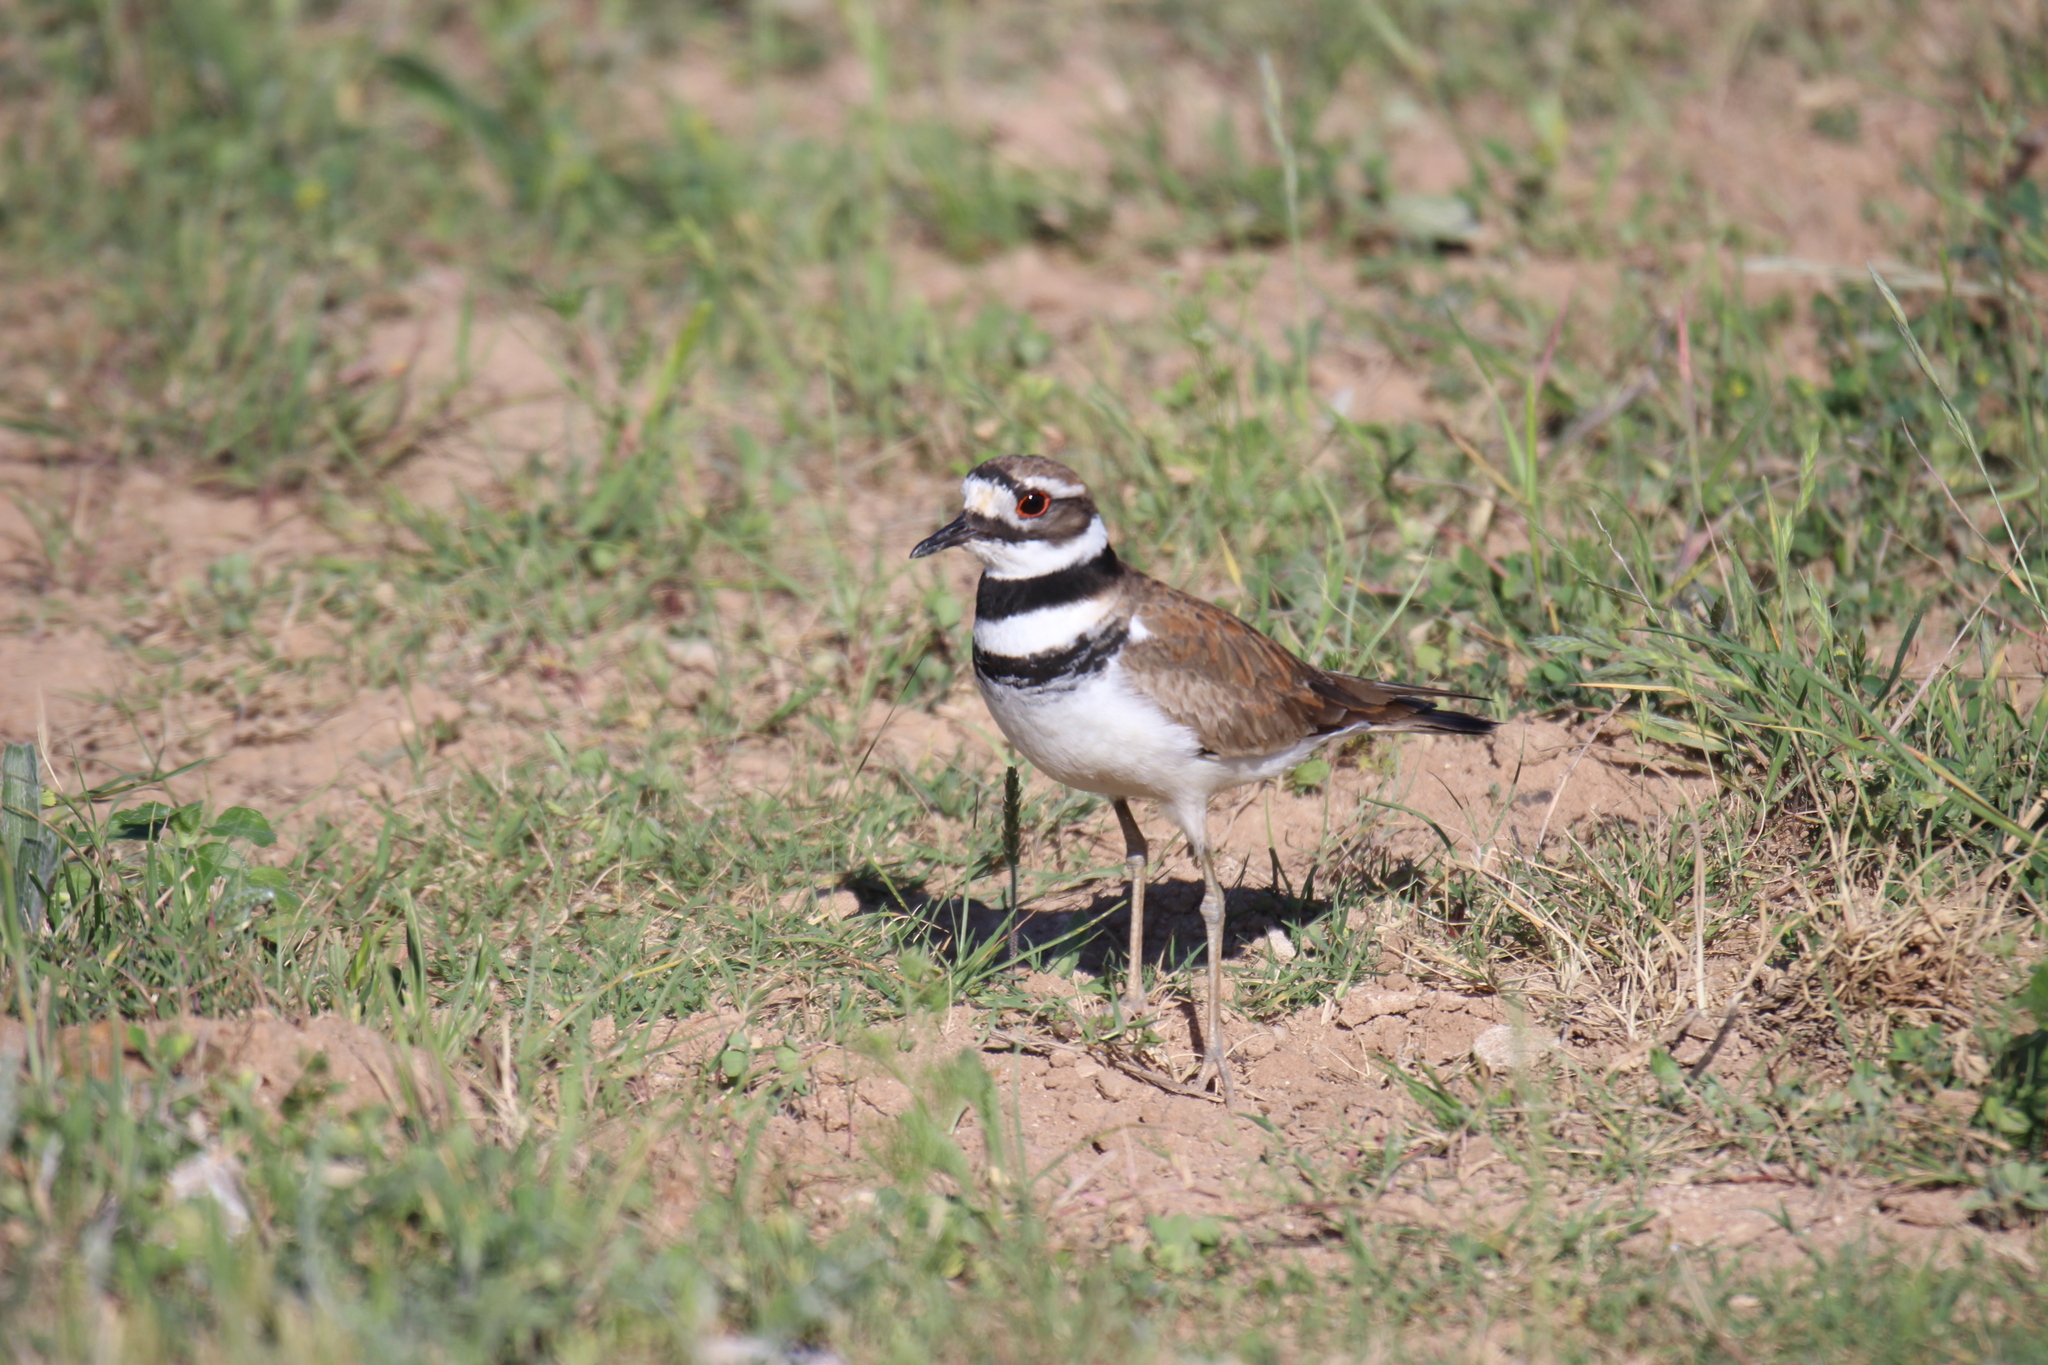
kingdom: Animalia
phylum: Chordata
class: Aves
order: Charadriiformes
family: Charadriidae
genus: Charadrius
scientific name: Charadrius vociferus
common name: Killdeer
